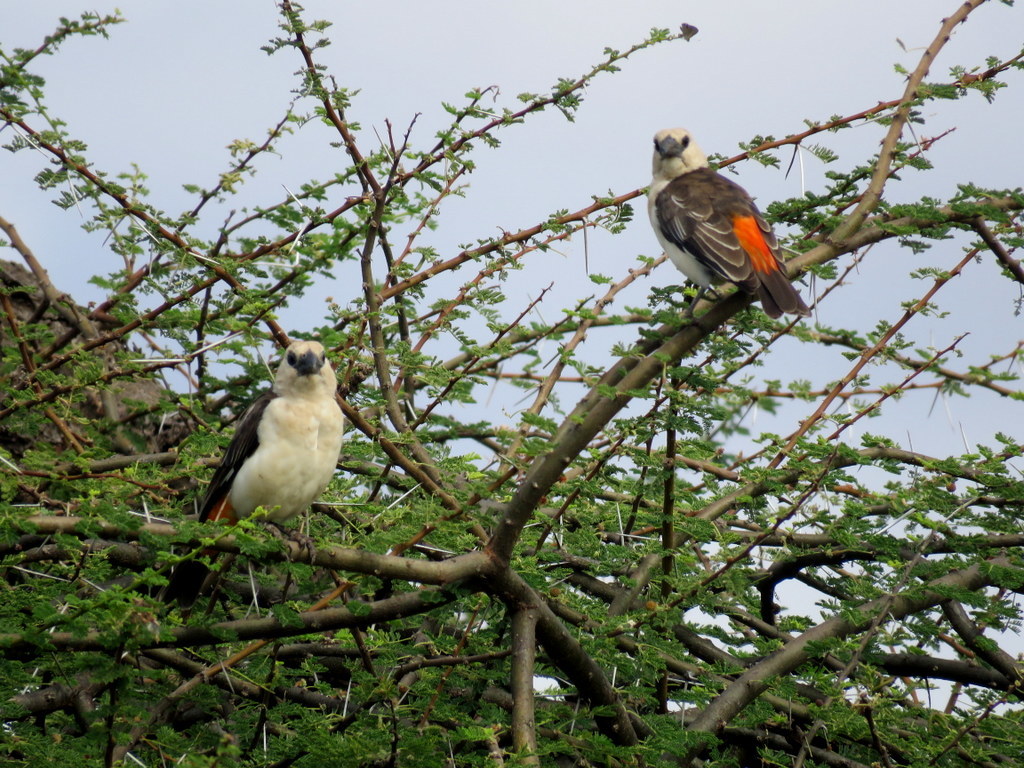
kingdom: Animalia
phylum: Chordata
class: Aves
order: Passeriformes
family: Ploceidae
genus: Dinemellia
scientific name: Dinemellia dinemelli
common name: White-headed buffalo weaver
